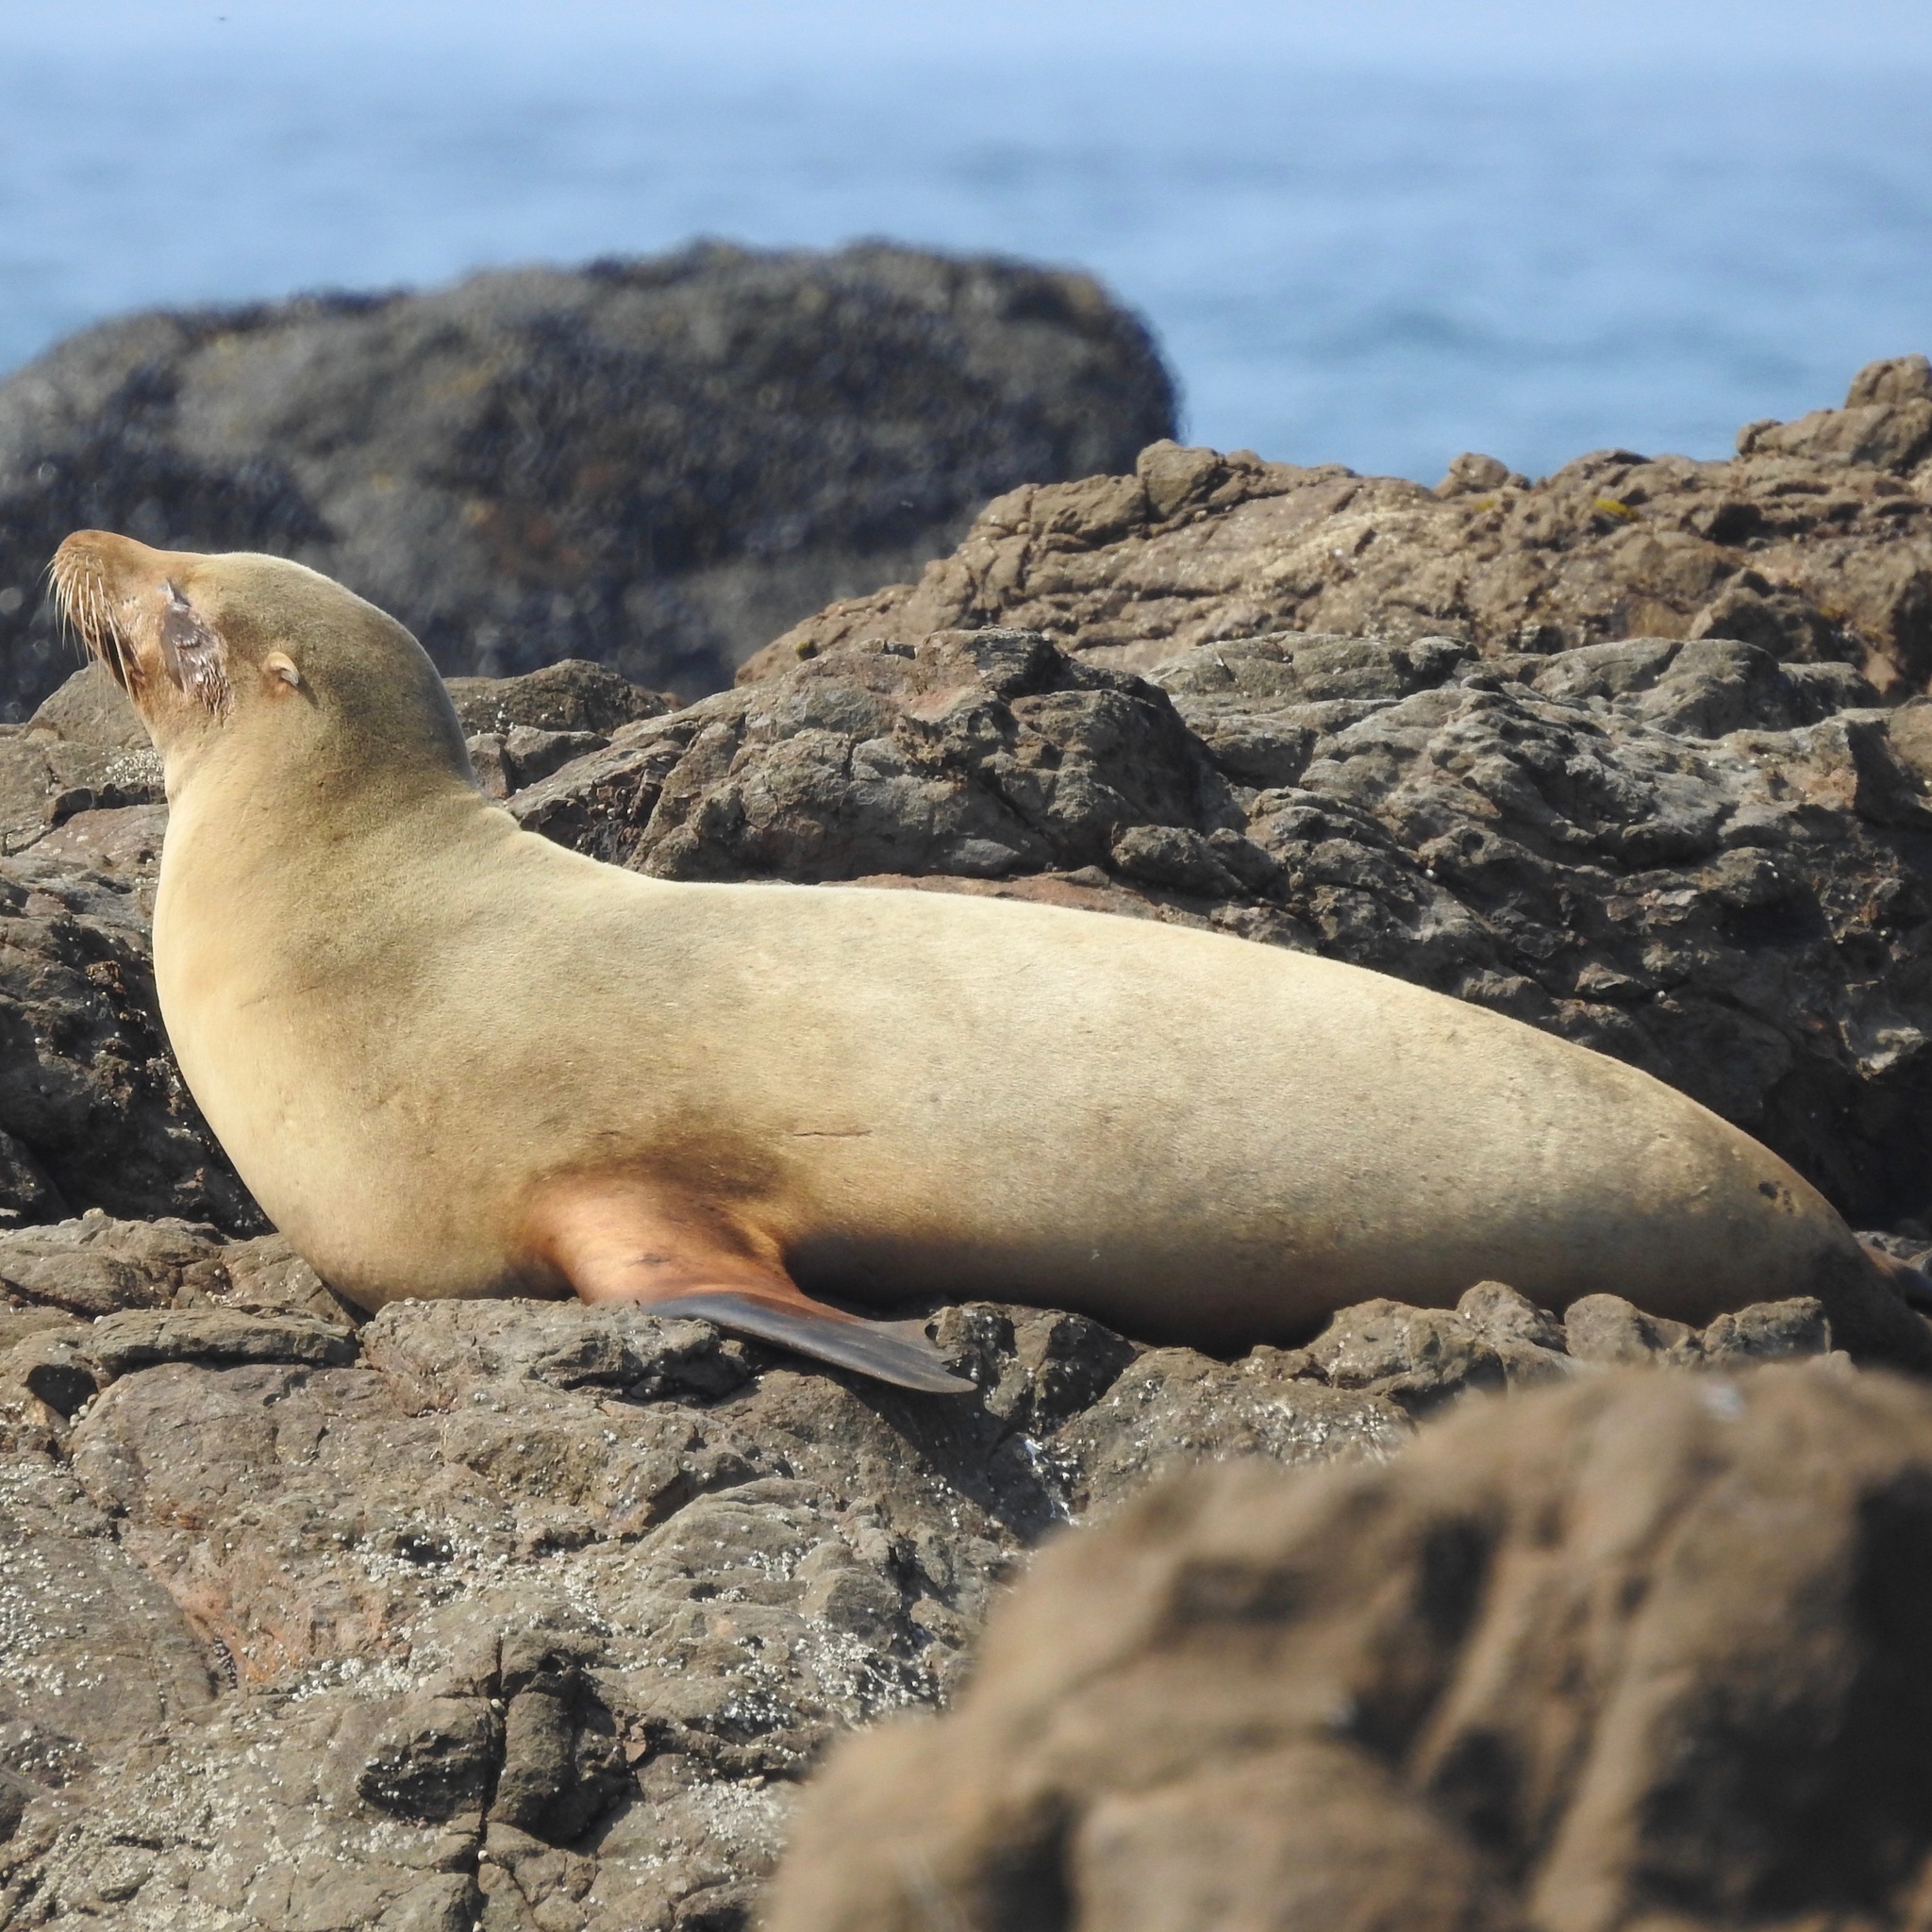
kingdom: Animalia
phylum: Chordata
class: Mammalia
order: Carnivora
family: Otariidae
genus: Zalophus
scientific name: Zalophus californianus
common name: California sea lion
